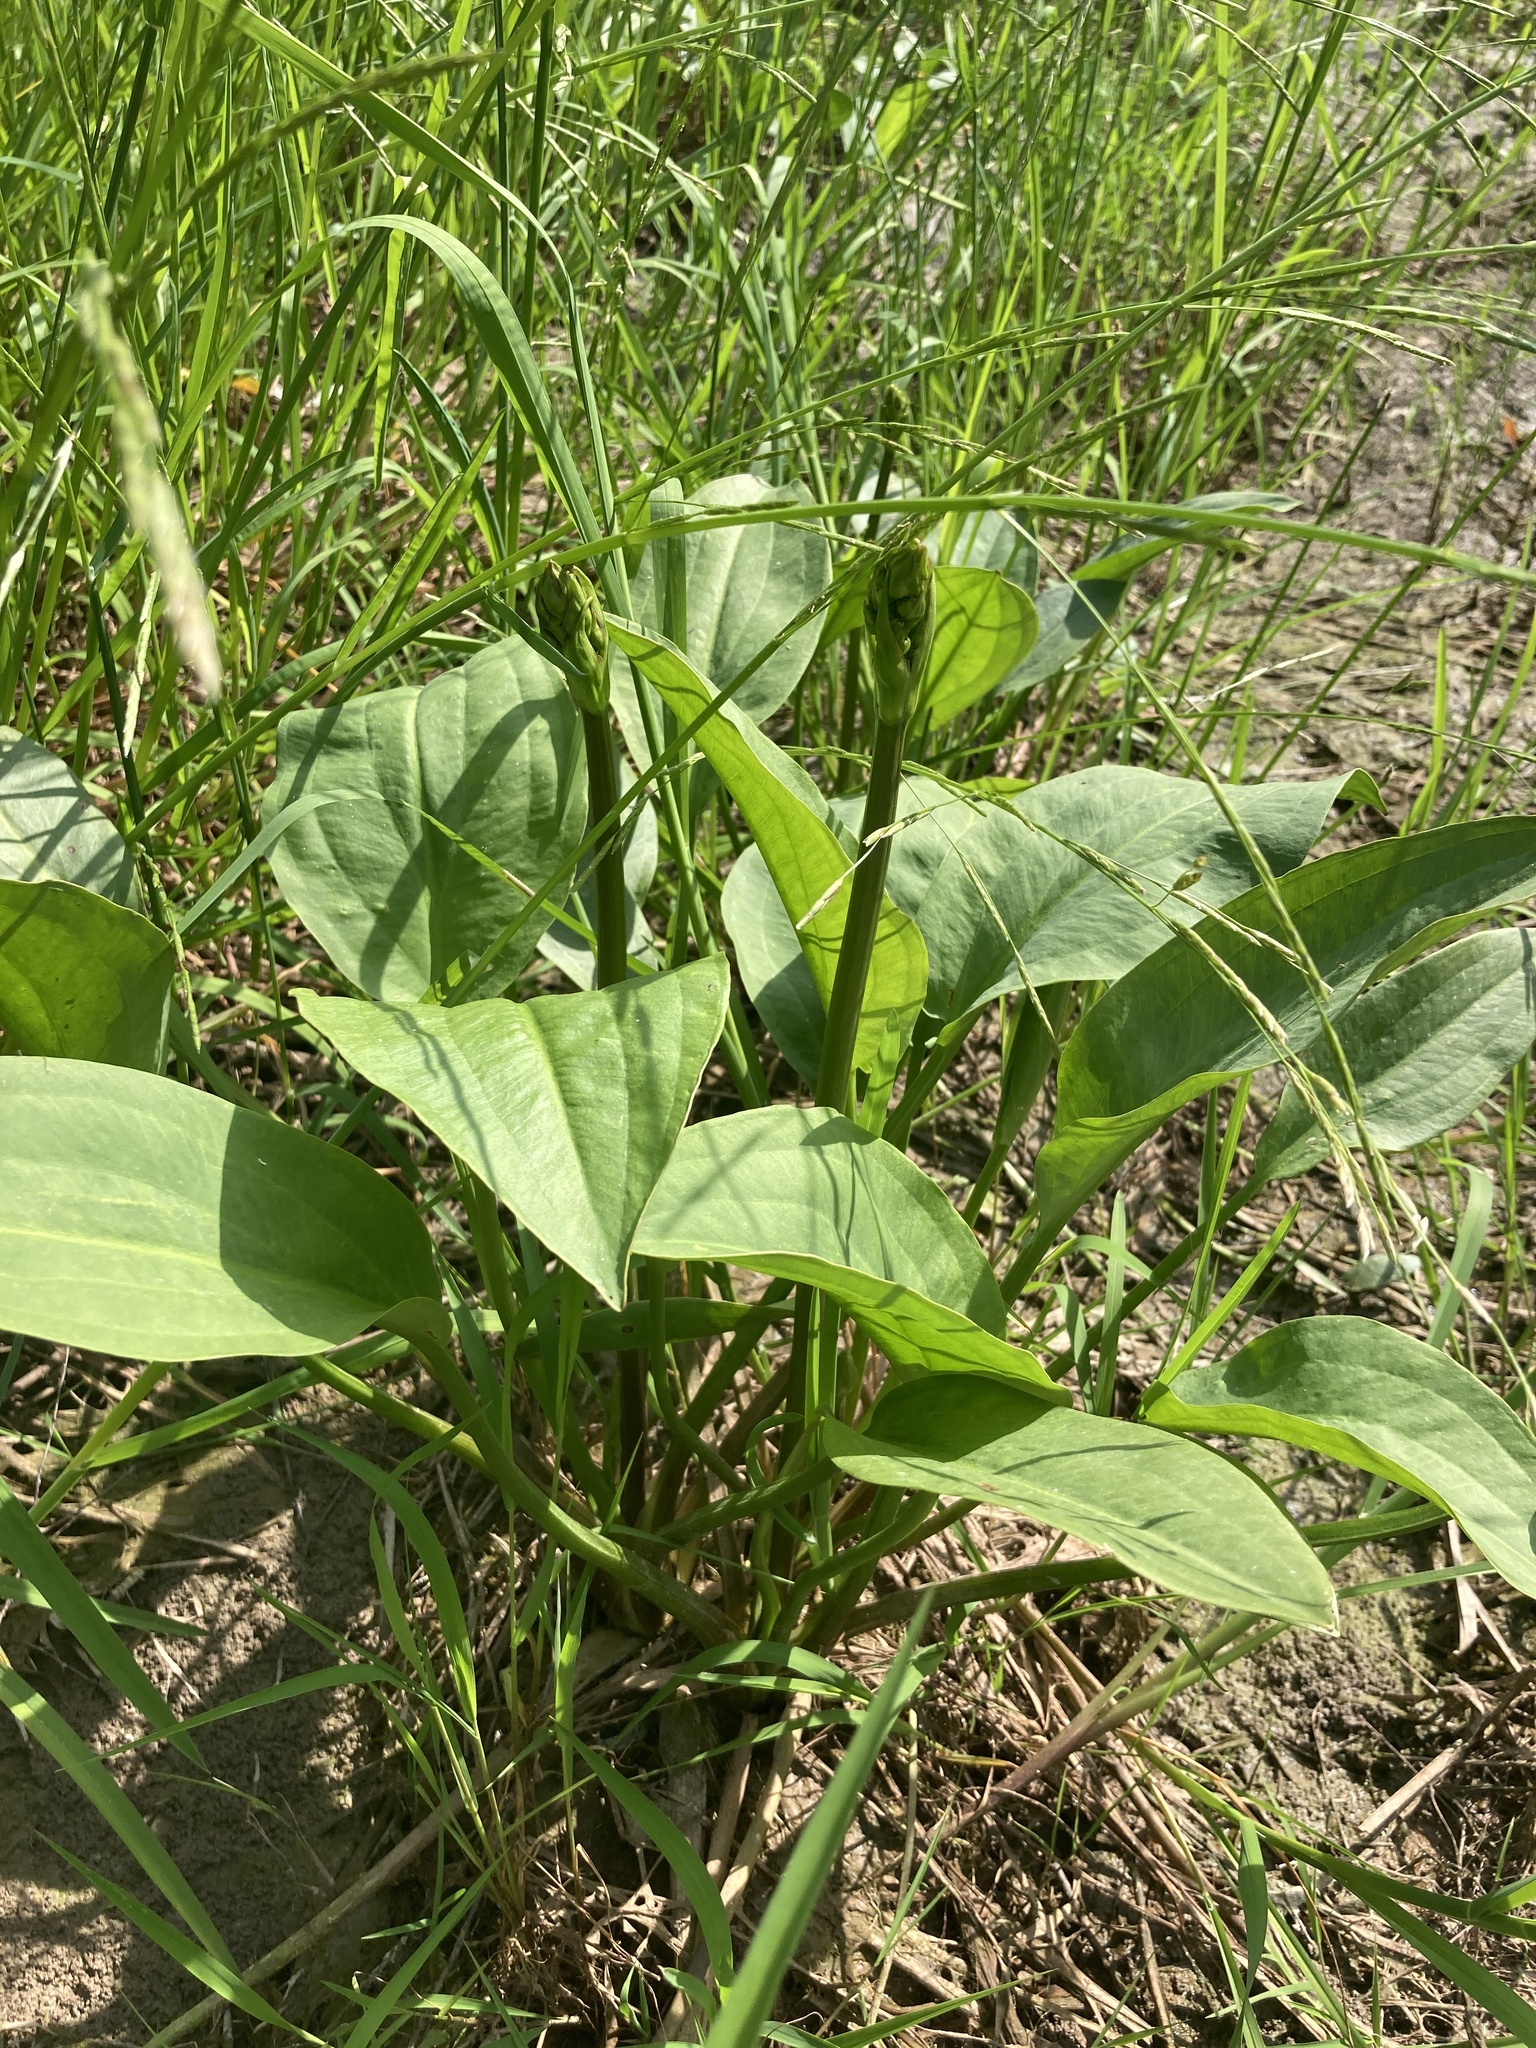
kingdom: Plantae
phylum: Tracheophyta
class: Liliopsida
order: Alismatales
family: Alismataceae
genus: Alisma
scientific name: Alisma plantago-aquatica
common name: Water-plantain
